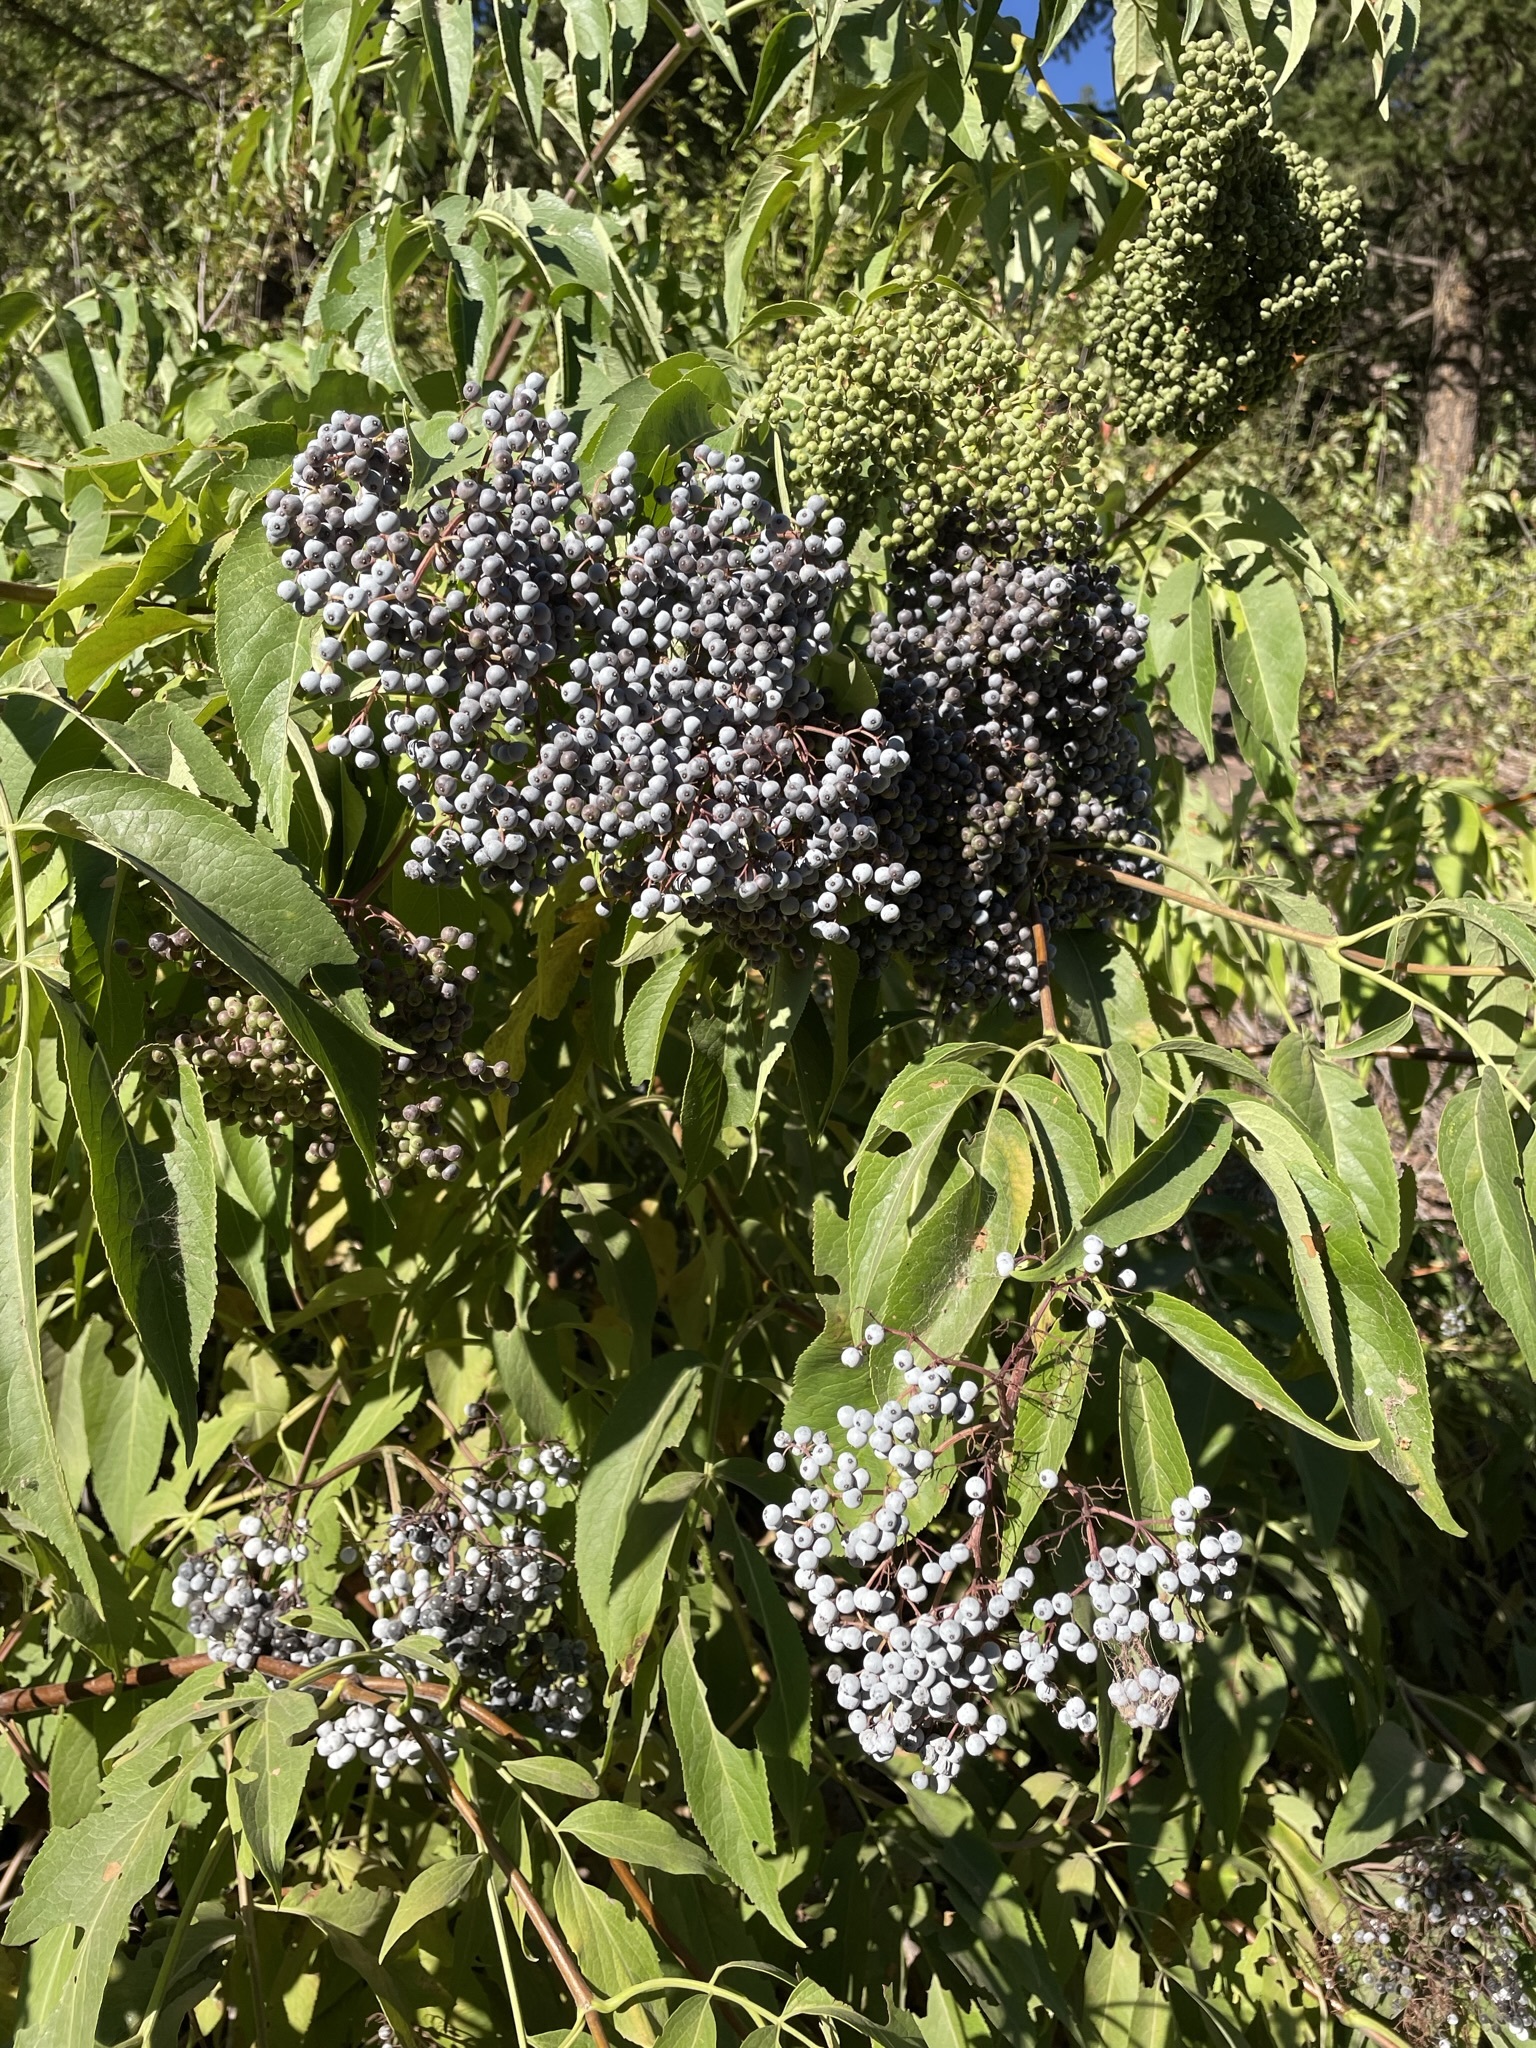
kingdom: Plantae
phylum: Tracheophyta
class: Magnoliopsida
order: Dipsacales
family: Viburnaceae
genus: Sambucus
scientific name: Sambucus cerulea
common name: Blue elder
